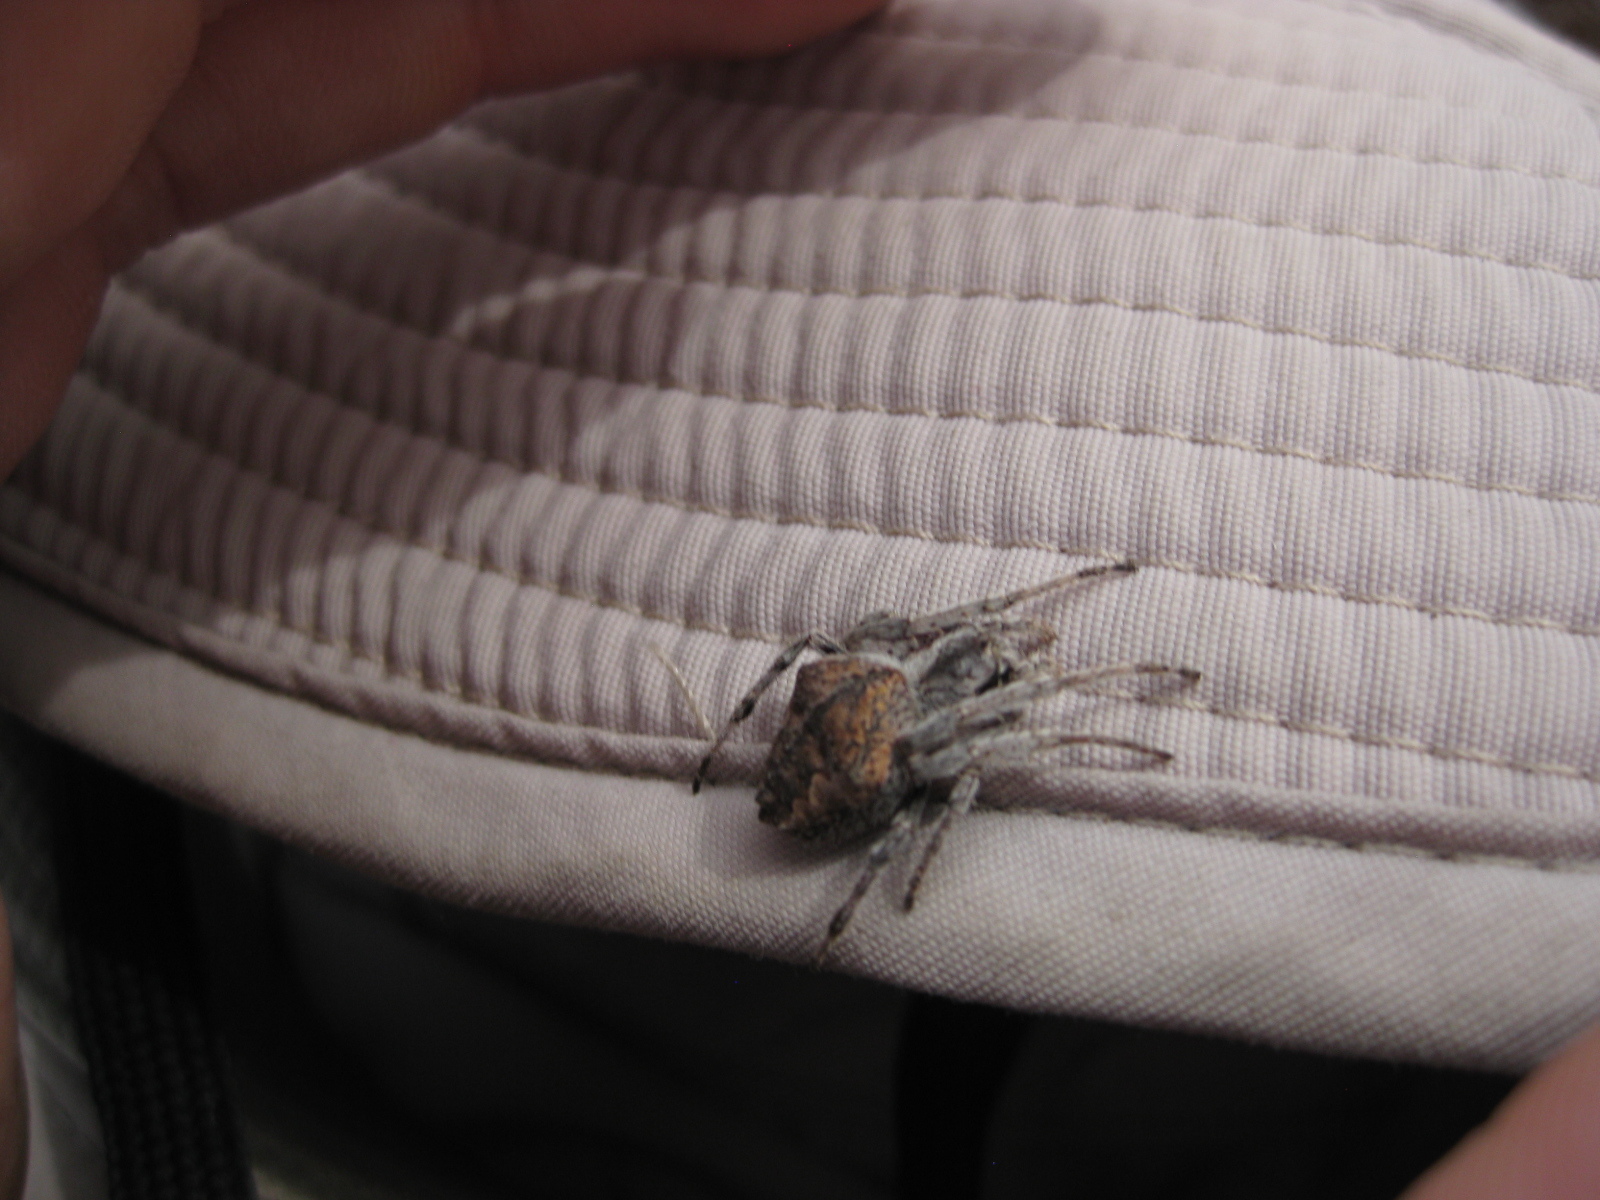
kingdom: Animalia
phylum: Arthropoda
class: Arachnida
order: Araneae
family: Araneidae
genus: Eriophora
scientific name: Eriophora pustulosa
